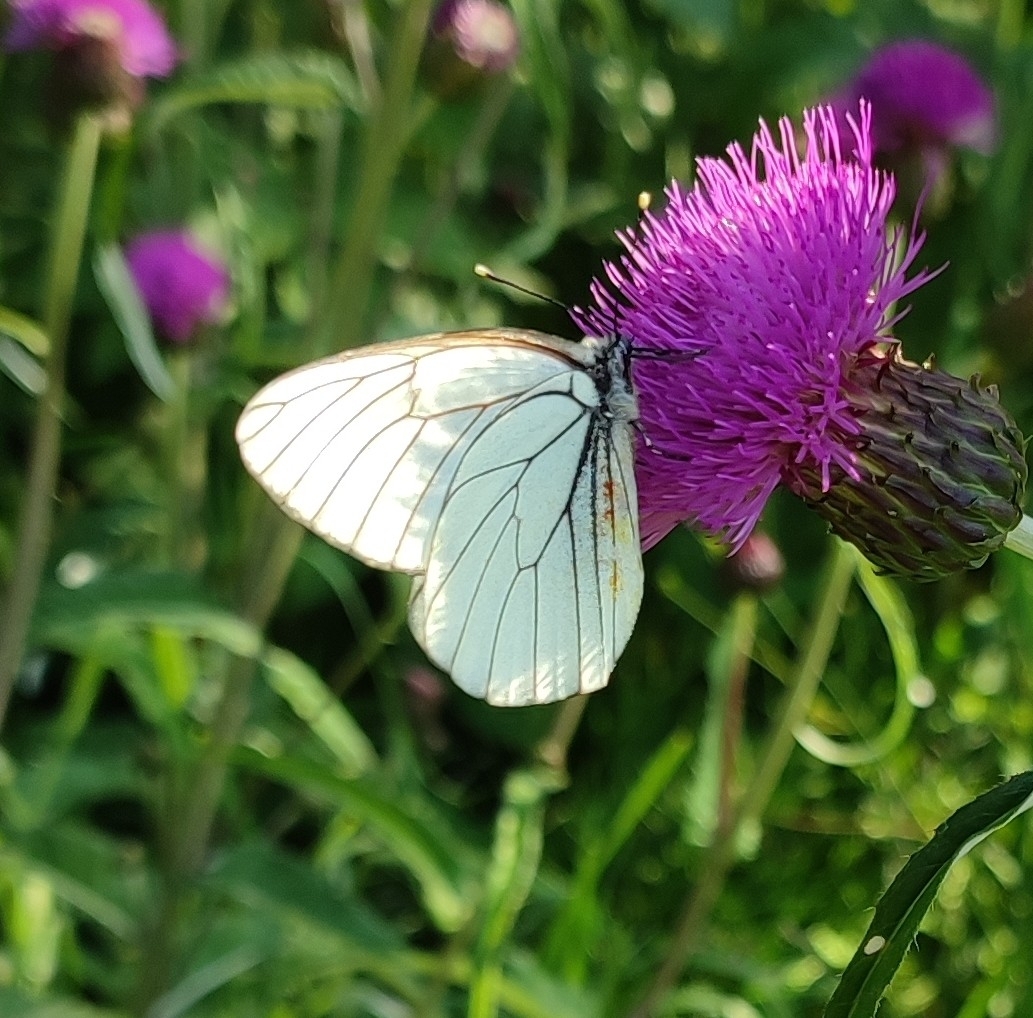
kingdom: Animalia
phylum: Arthropoda
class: Insecta
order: Lepidoptera
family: Pieridae
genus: Aporia
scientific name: Aporia crataegi
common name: Black-veined white
